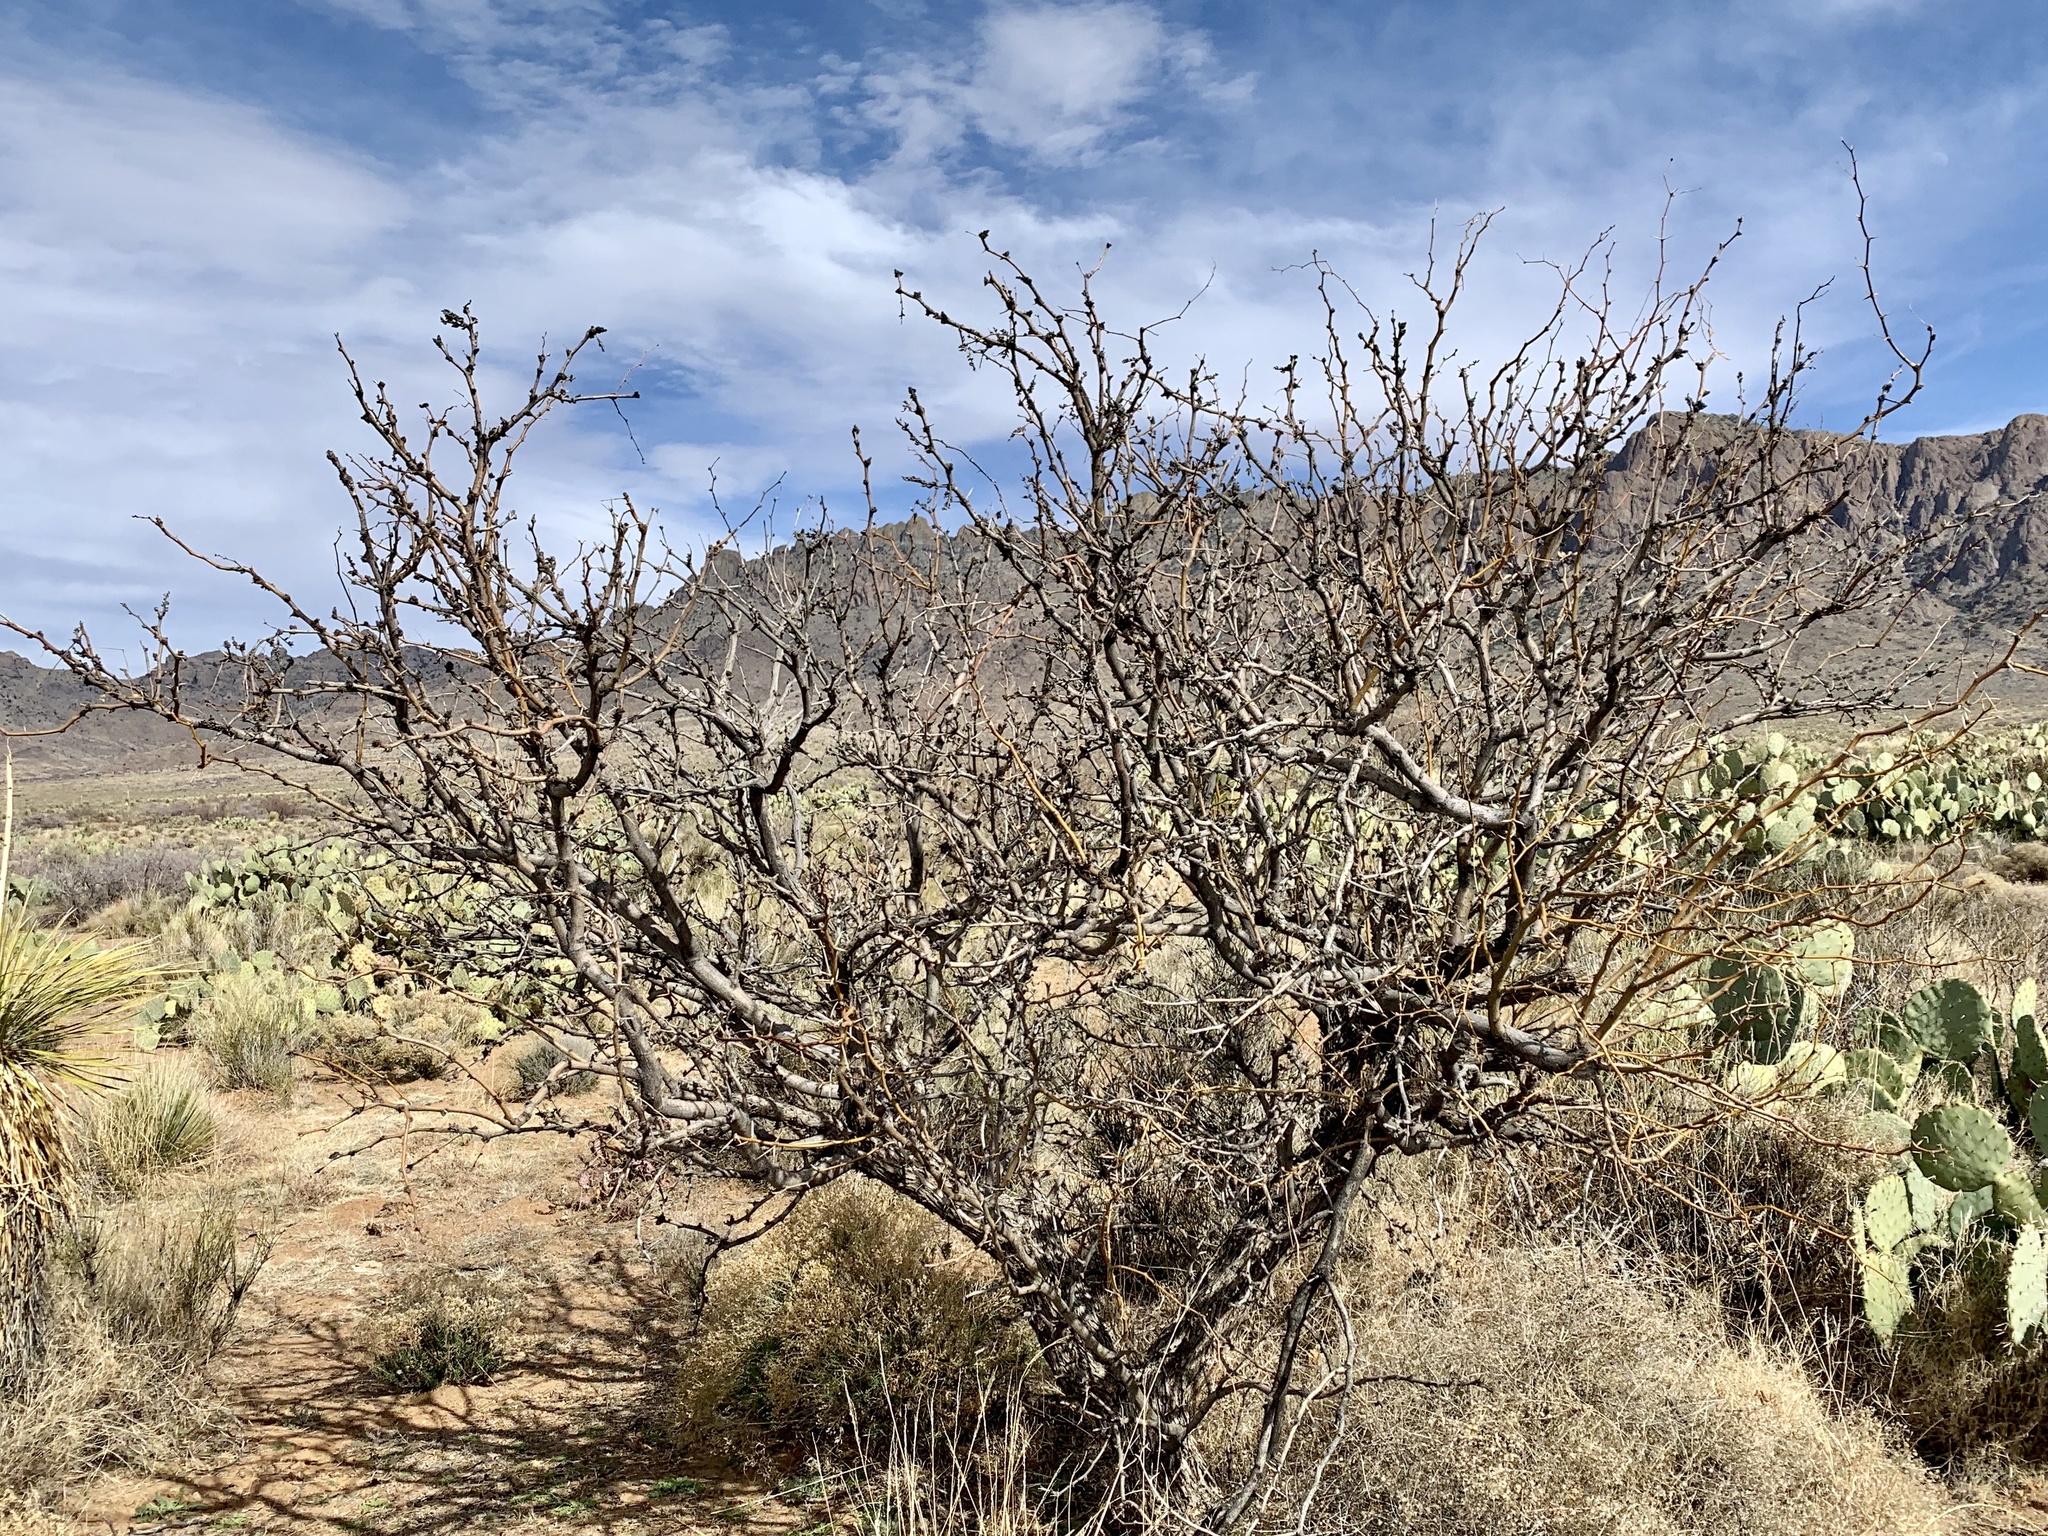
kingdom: Plantae
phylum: Tracheophyta
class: Magnoliopsida
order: Fabales
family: Fabaceae
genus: Prosopis
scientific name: Prosopis glandulosa
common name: Honey mesquite
